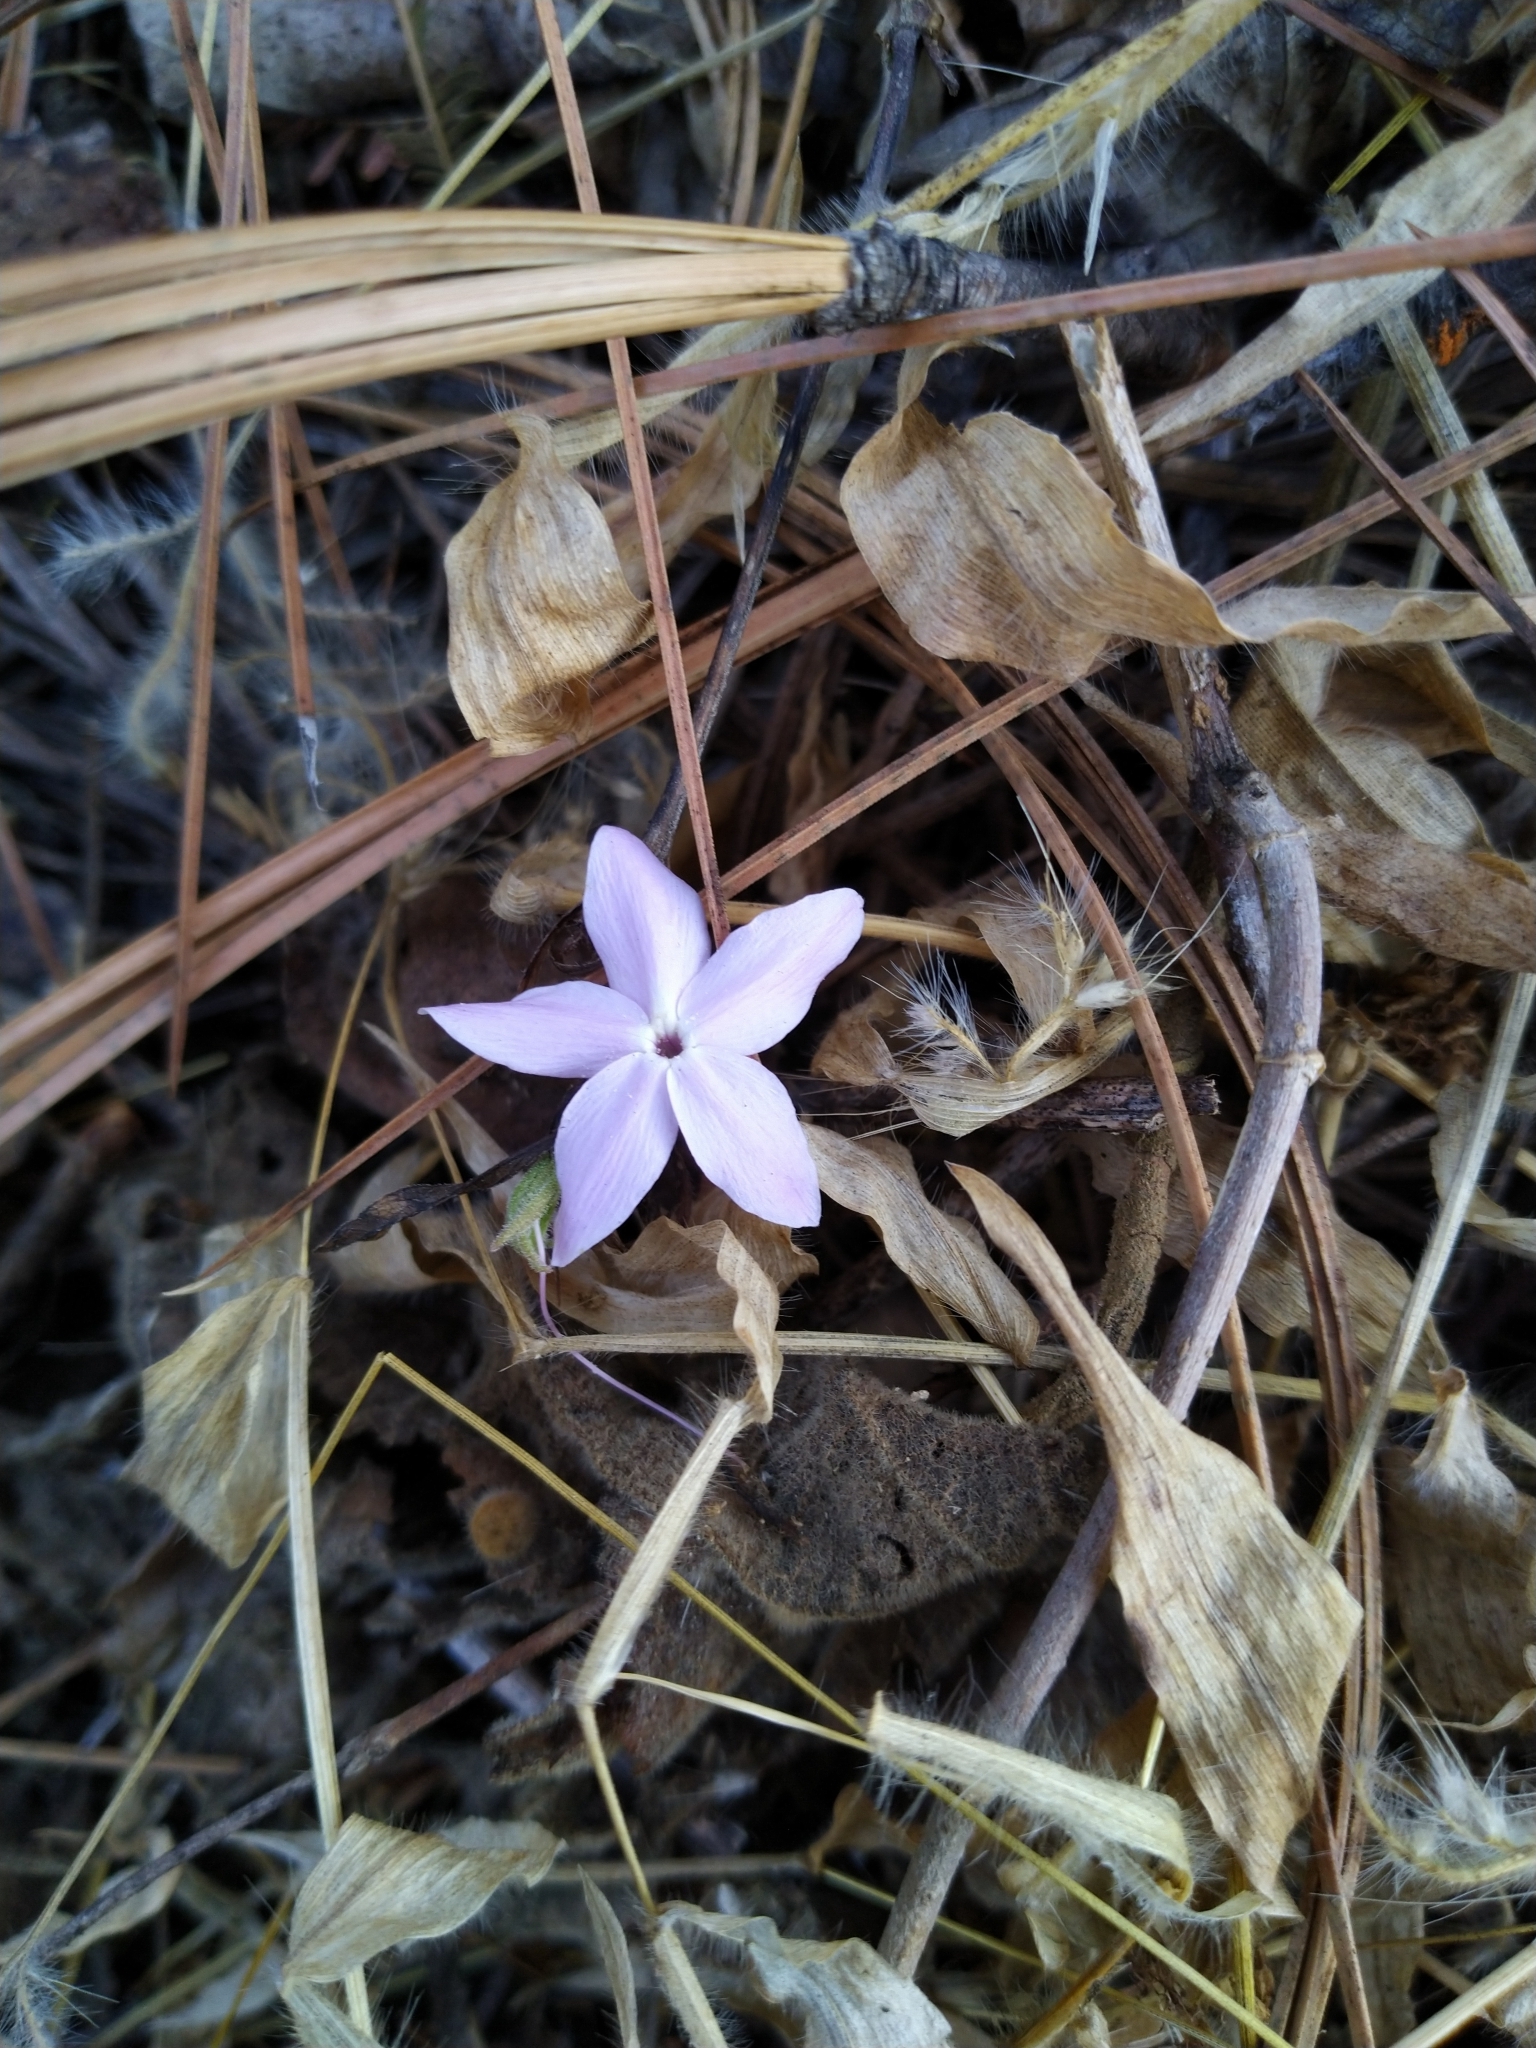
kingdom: Plantae
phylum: Tracheophyta
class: Magnoliopsida
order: Lamiales
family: Acanthaceae
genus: Pseuderanthemum
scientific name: Pseuderanthemum praecox
